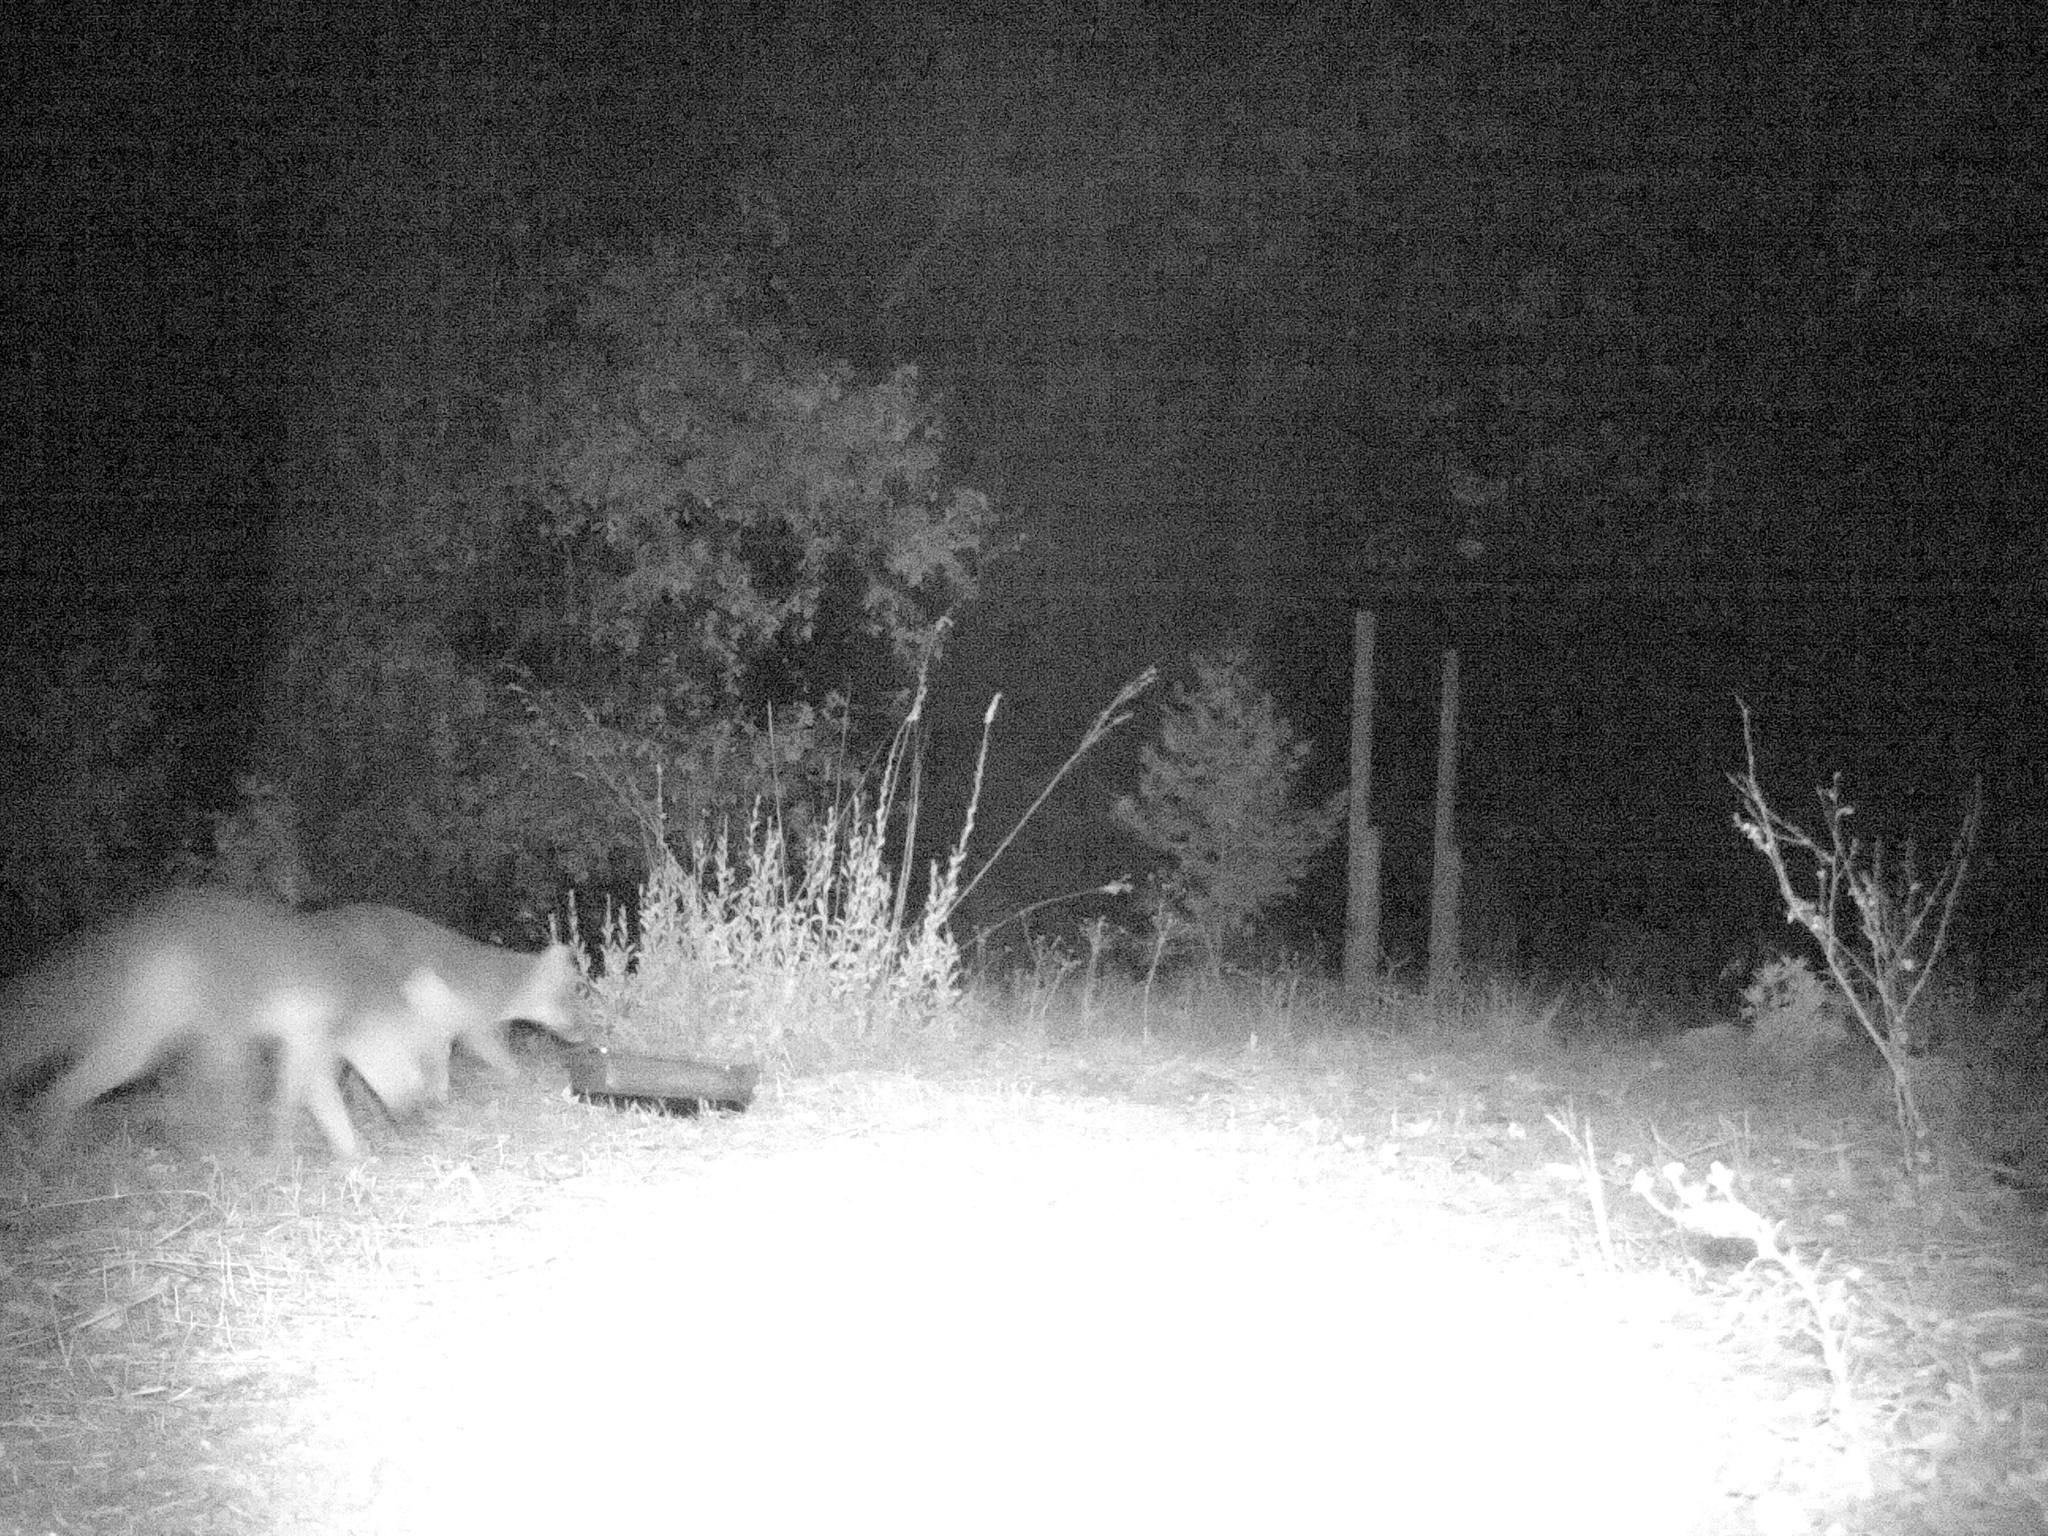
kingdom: Animalia
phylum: Chordata
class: Mammalia
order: Carnivora
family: Canidae
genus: Urocyon
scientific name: Urocyon cinereoargenteus
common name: Gray fox
